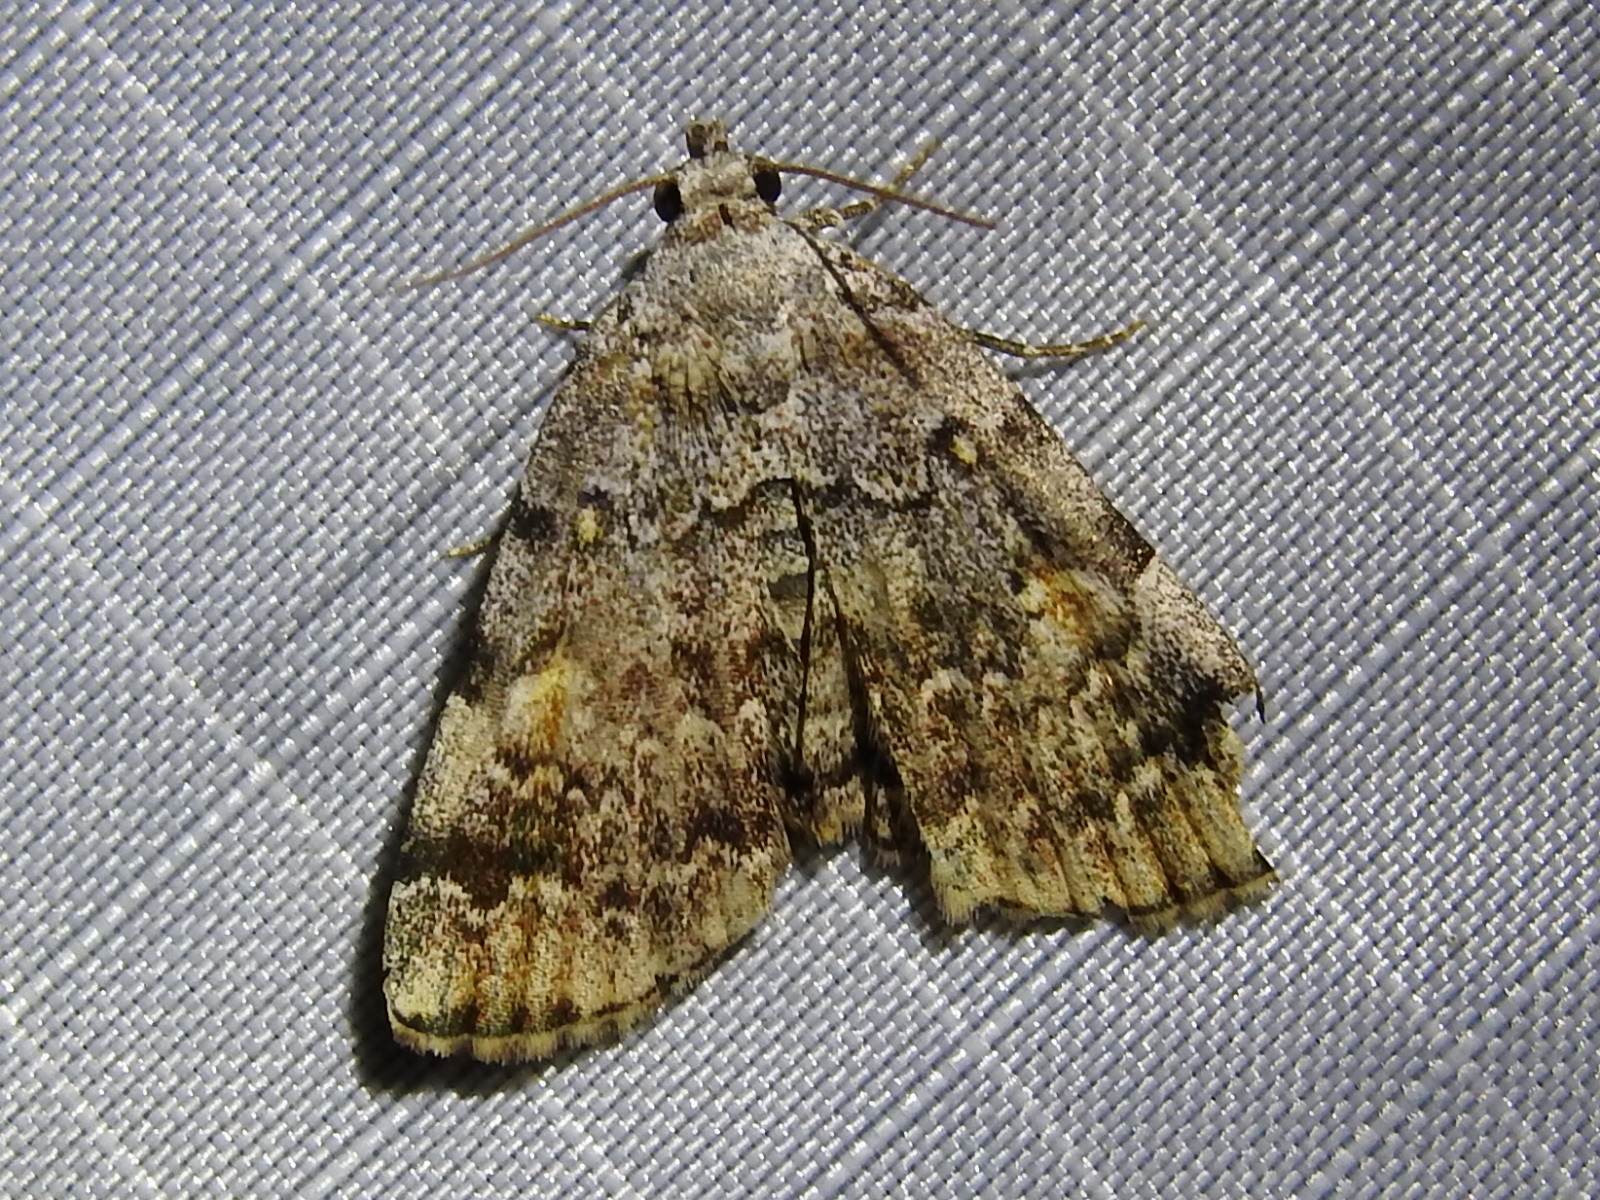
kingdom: Animalia
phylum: Arthropoda
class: Insecta
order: Lepidoptera
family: Erebidae
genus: Idia
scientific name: Idia americalis
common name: American idia moth
